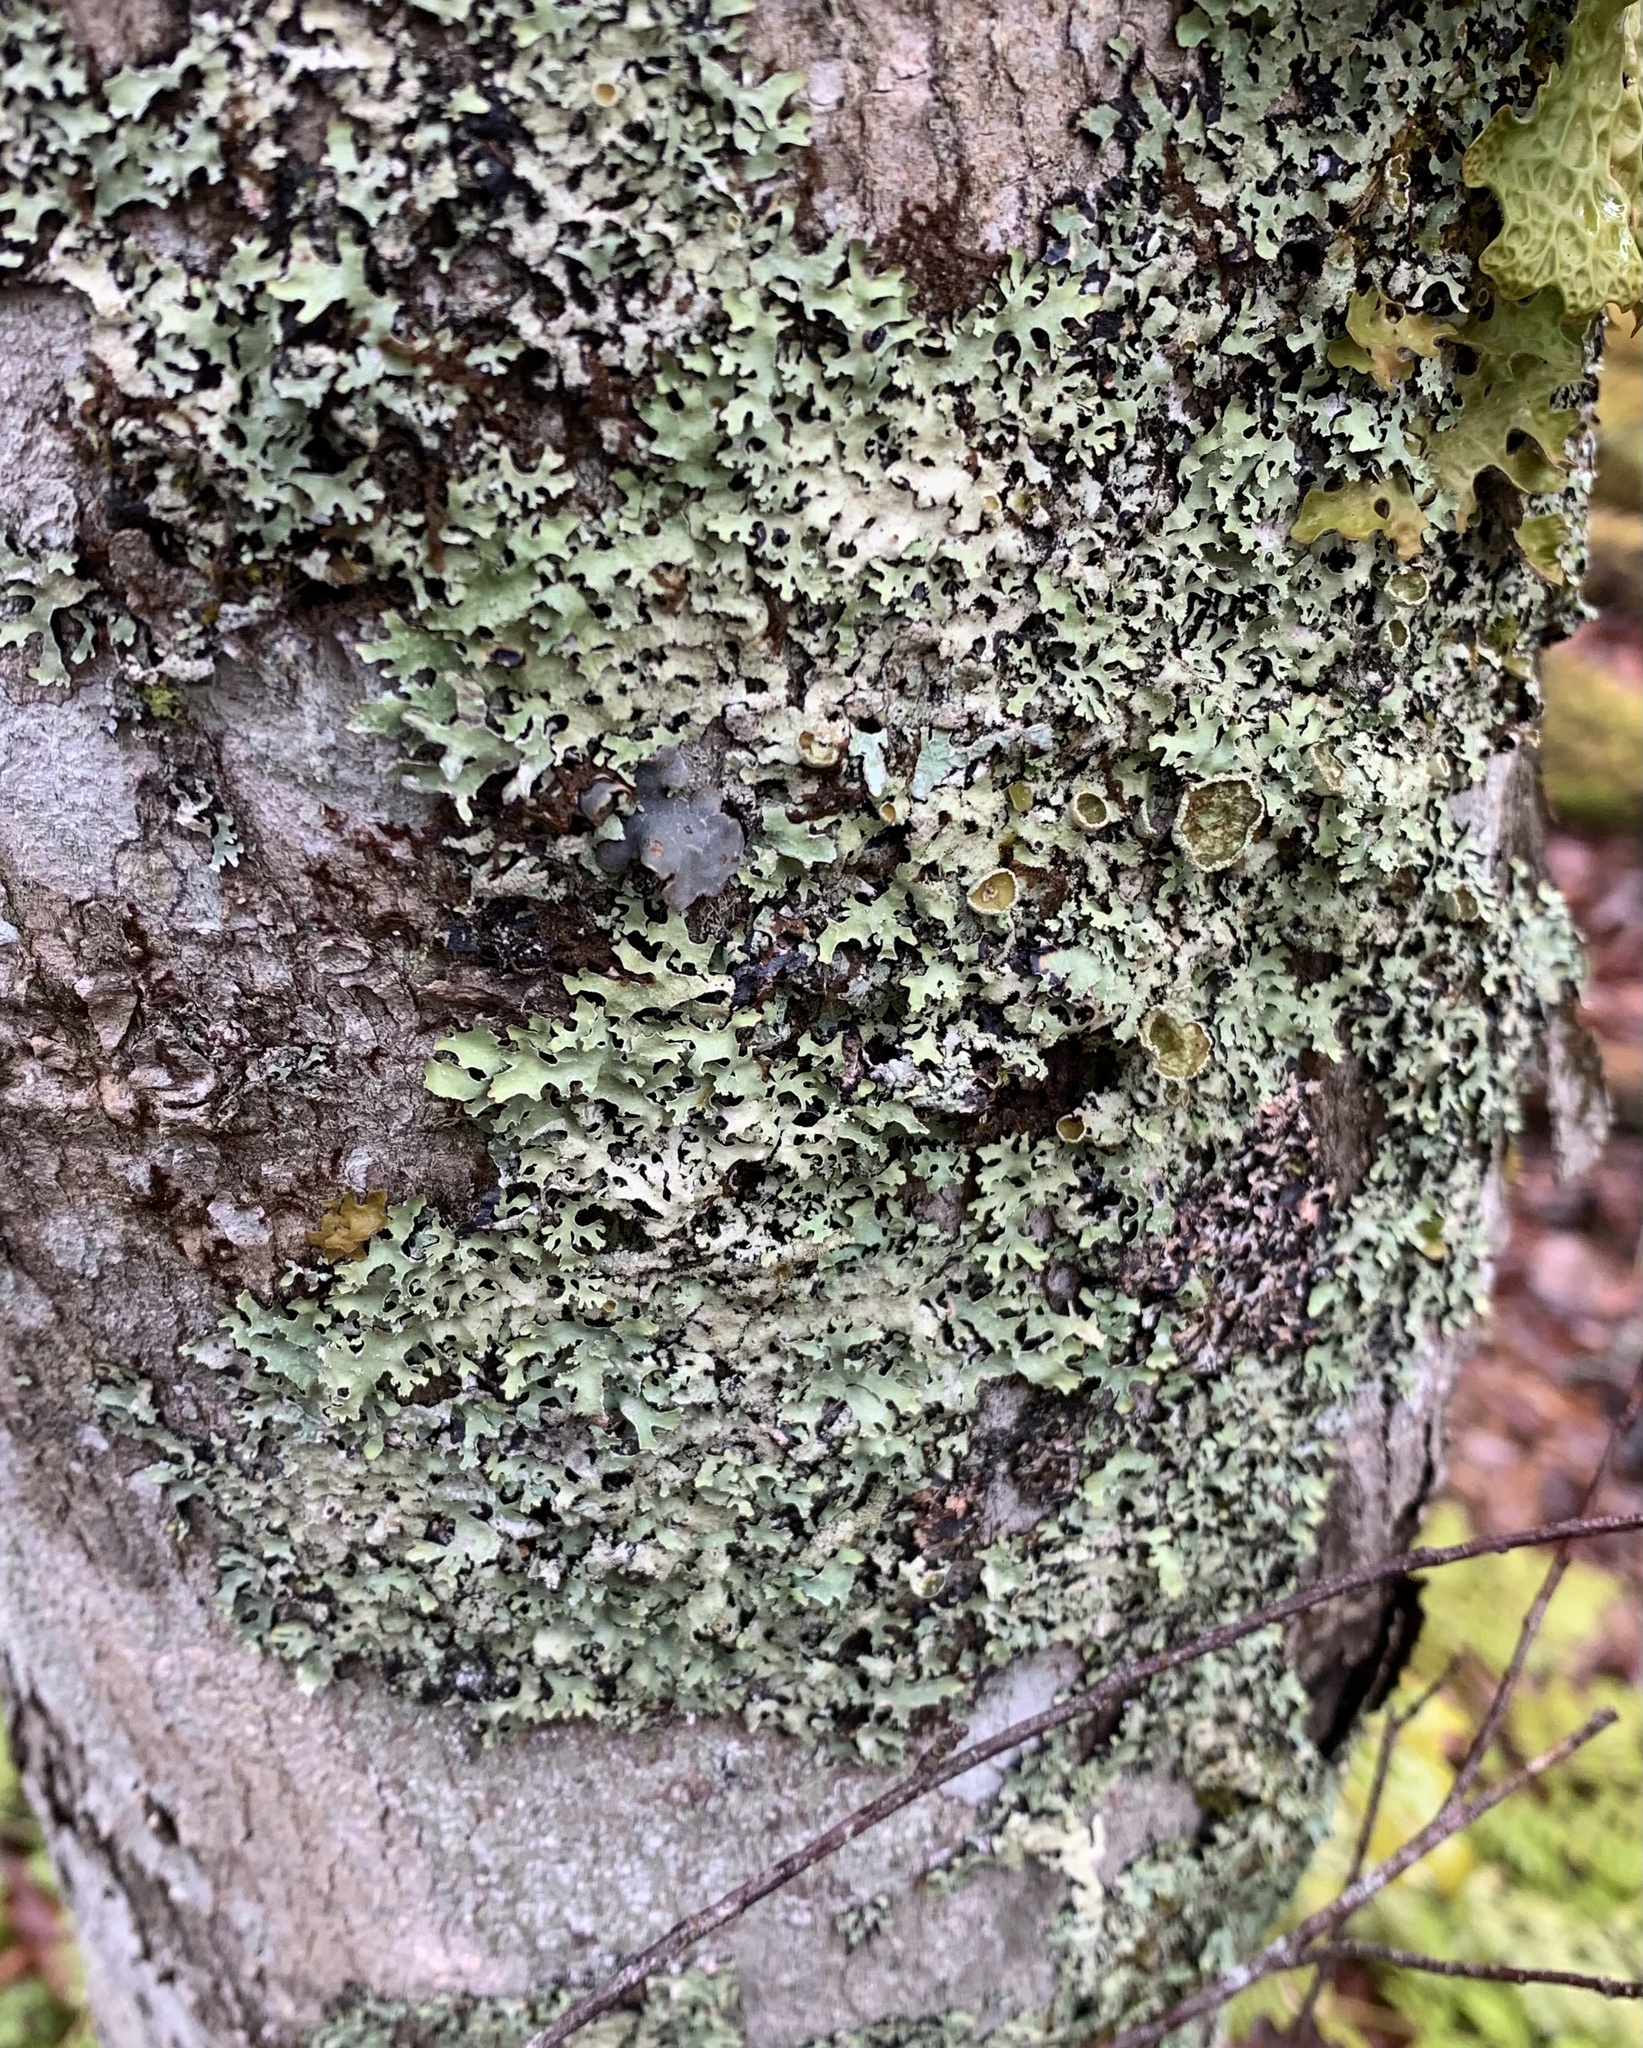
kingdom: Fungi
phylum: Ascomycota
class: Lecanoromycetes
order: Lecanorales
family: Parmeliaceae
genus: Parmelia
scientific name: Parmelia squarrosa
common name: Bottle brush shield lichen
